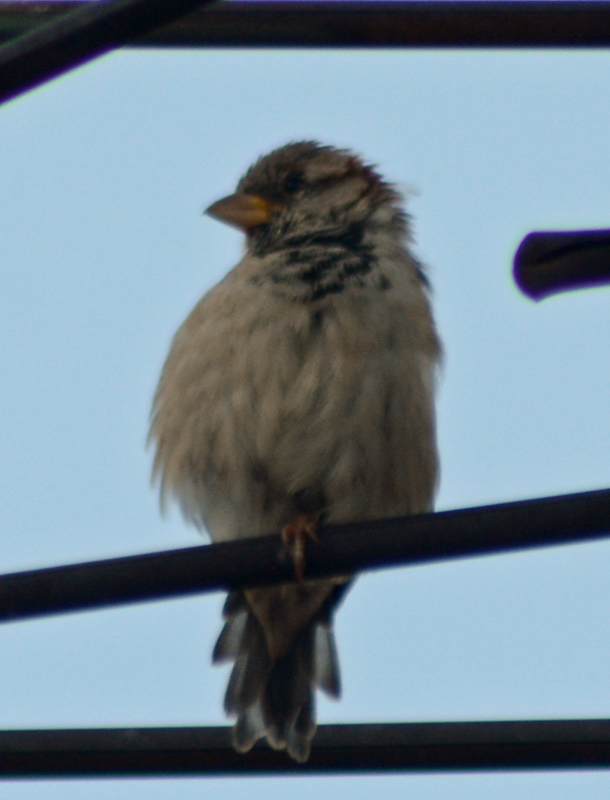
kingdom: Animalia
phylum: Chordata
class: Aves
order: Passeriformes
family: Passeridae
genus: Passer
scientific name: Passer domesticus
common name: House sparrow
